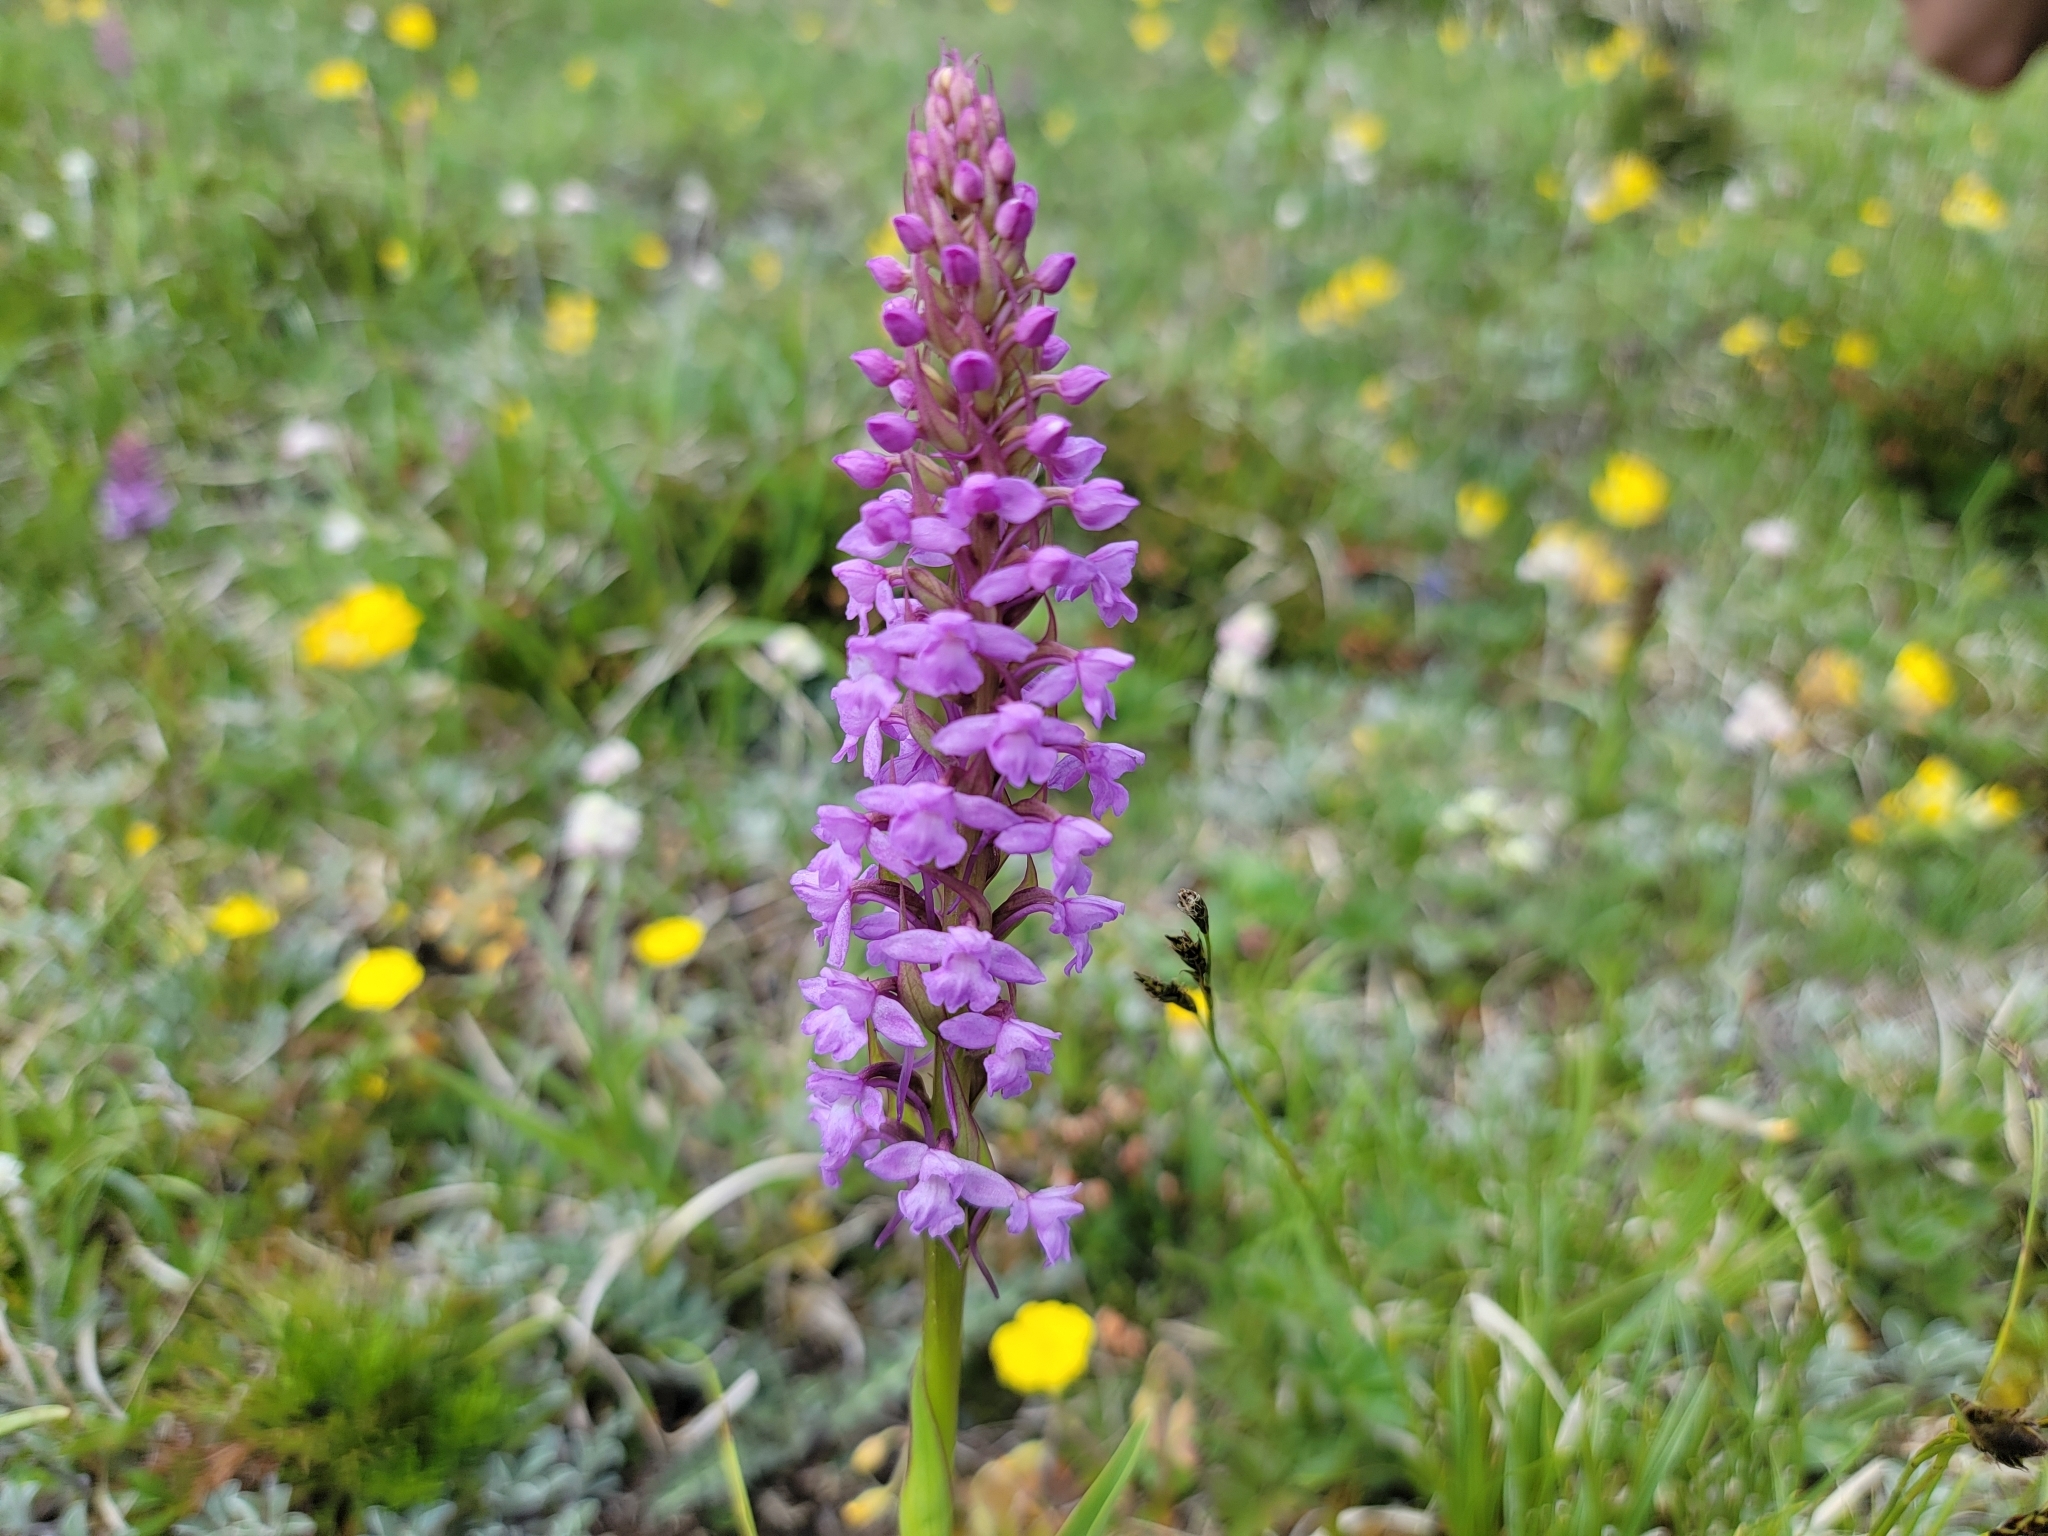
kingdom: Plantae
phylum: Tracheophyta
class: Liliopsida
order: Asparagales
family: Orchidaceae
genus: Gymnadenia
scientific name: Gymnadenia conopsea
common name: Fragrant orchid
